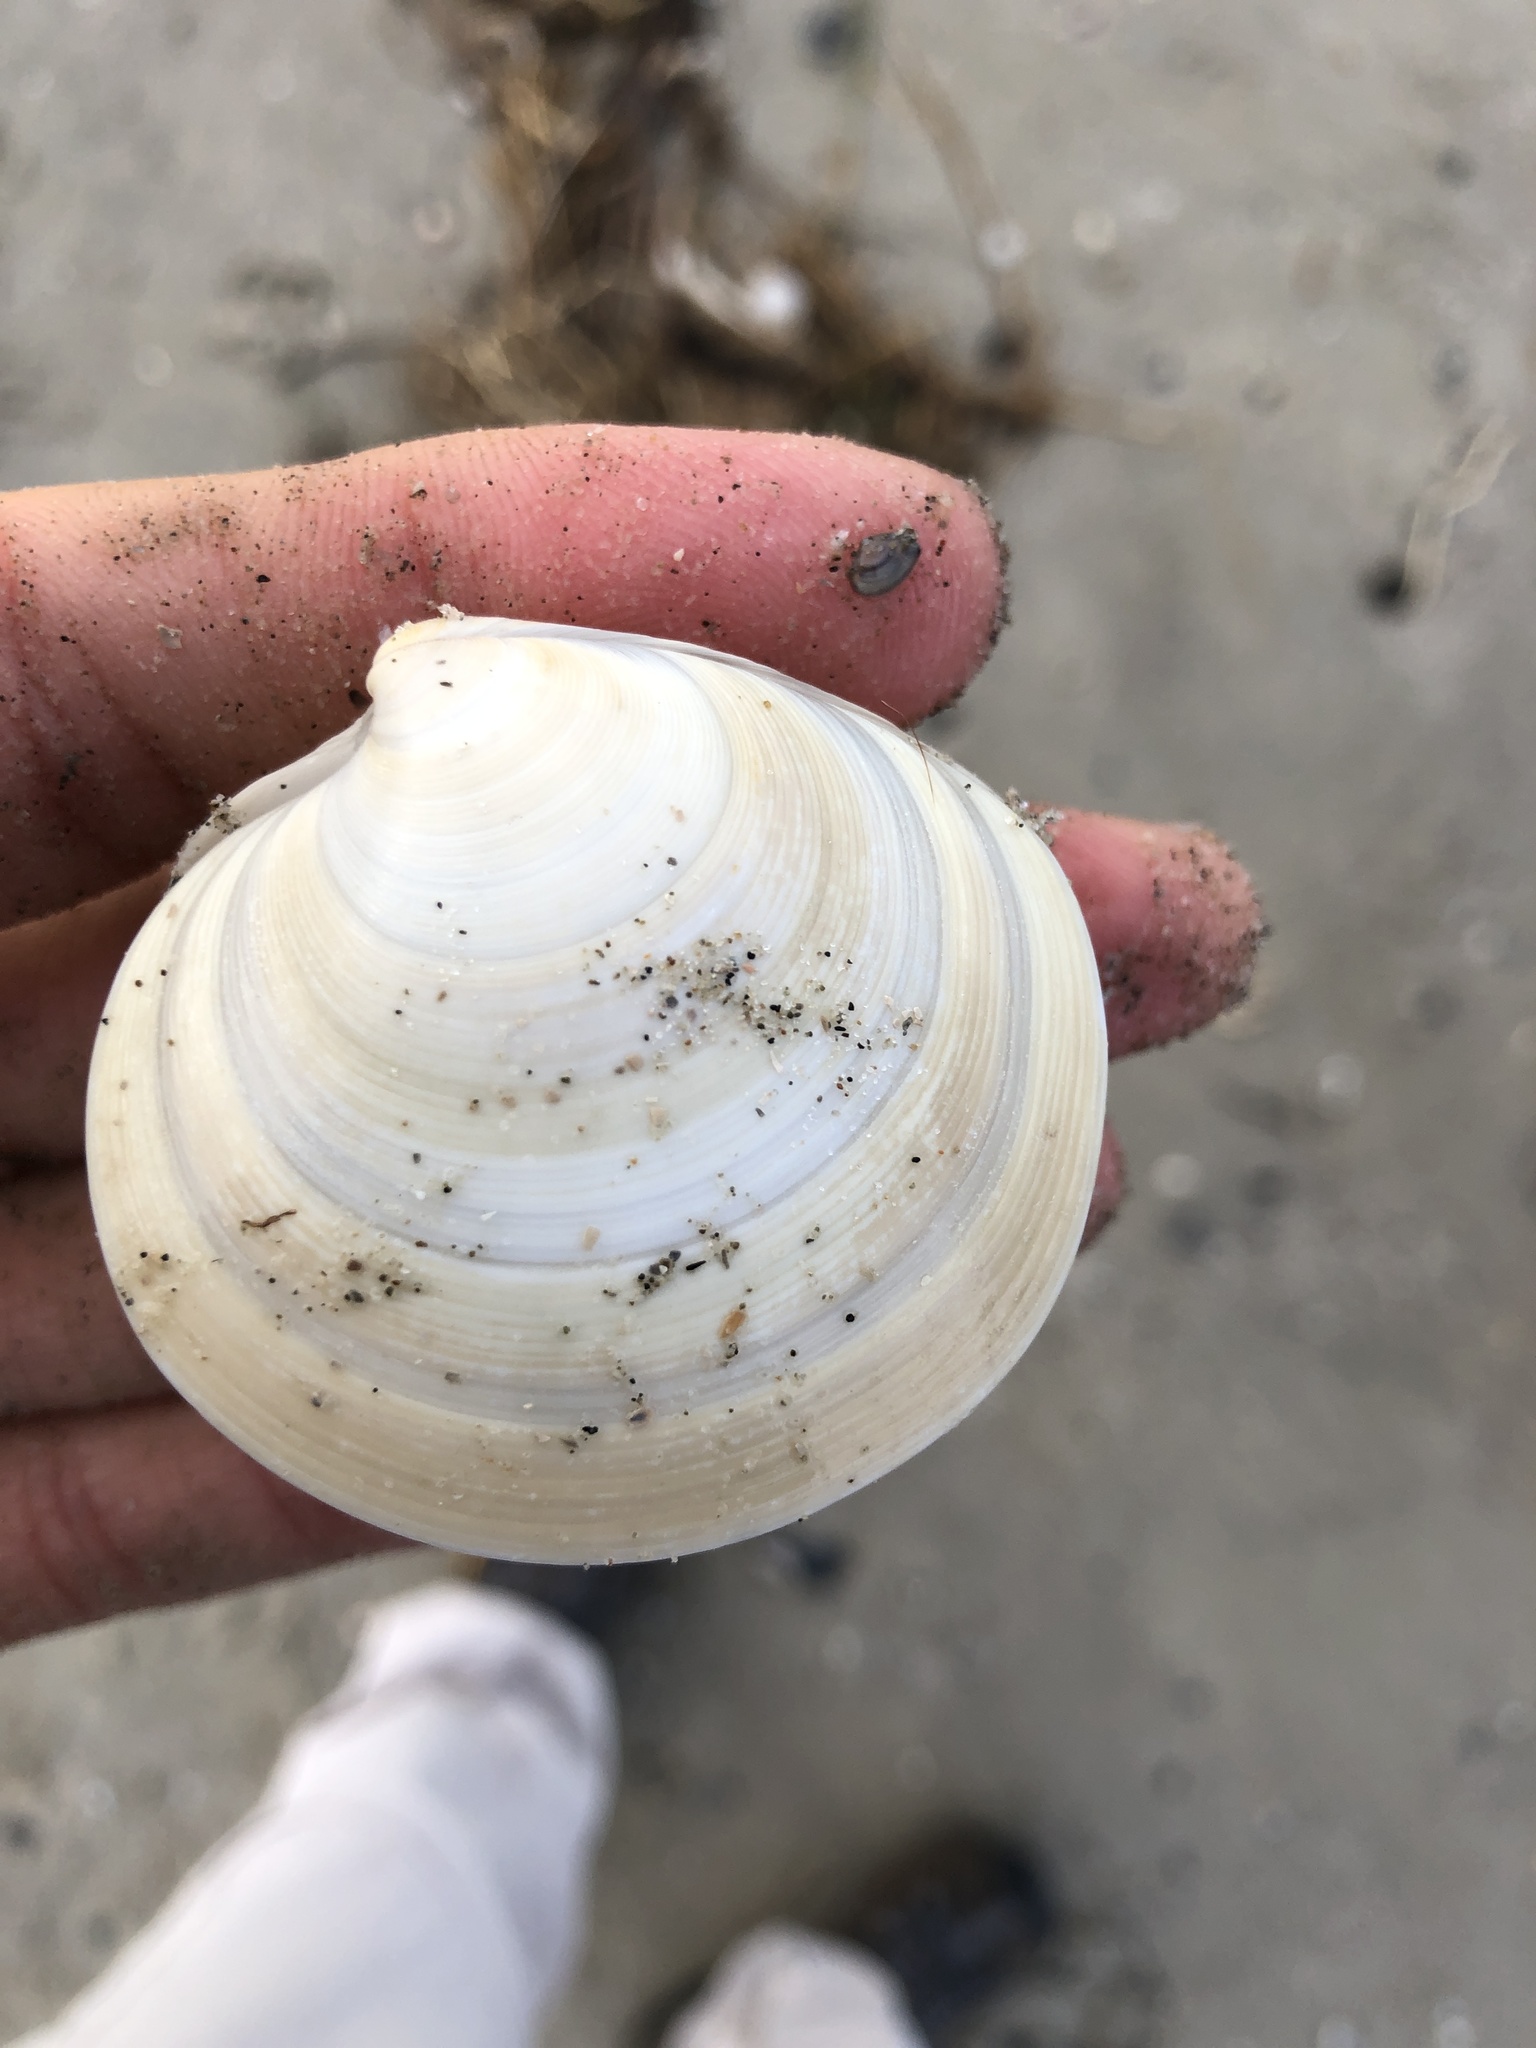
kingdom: Animalia
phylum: Mollusca
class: Bivalvia
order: Venerida
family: Veneridae
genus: Dosinia
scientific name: Dosinia discus
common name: Disk dosinia
